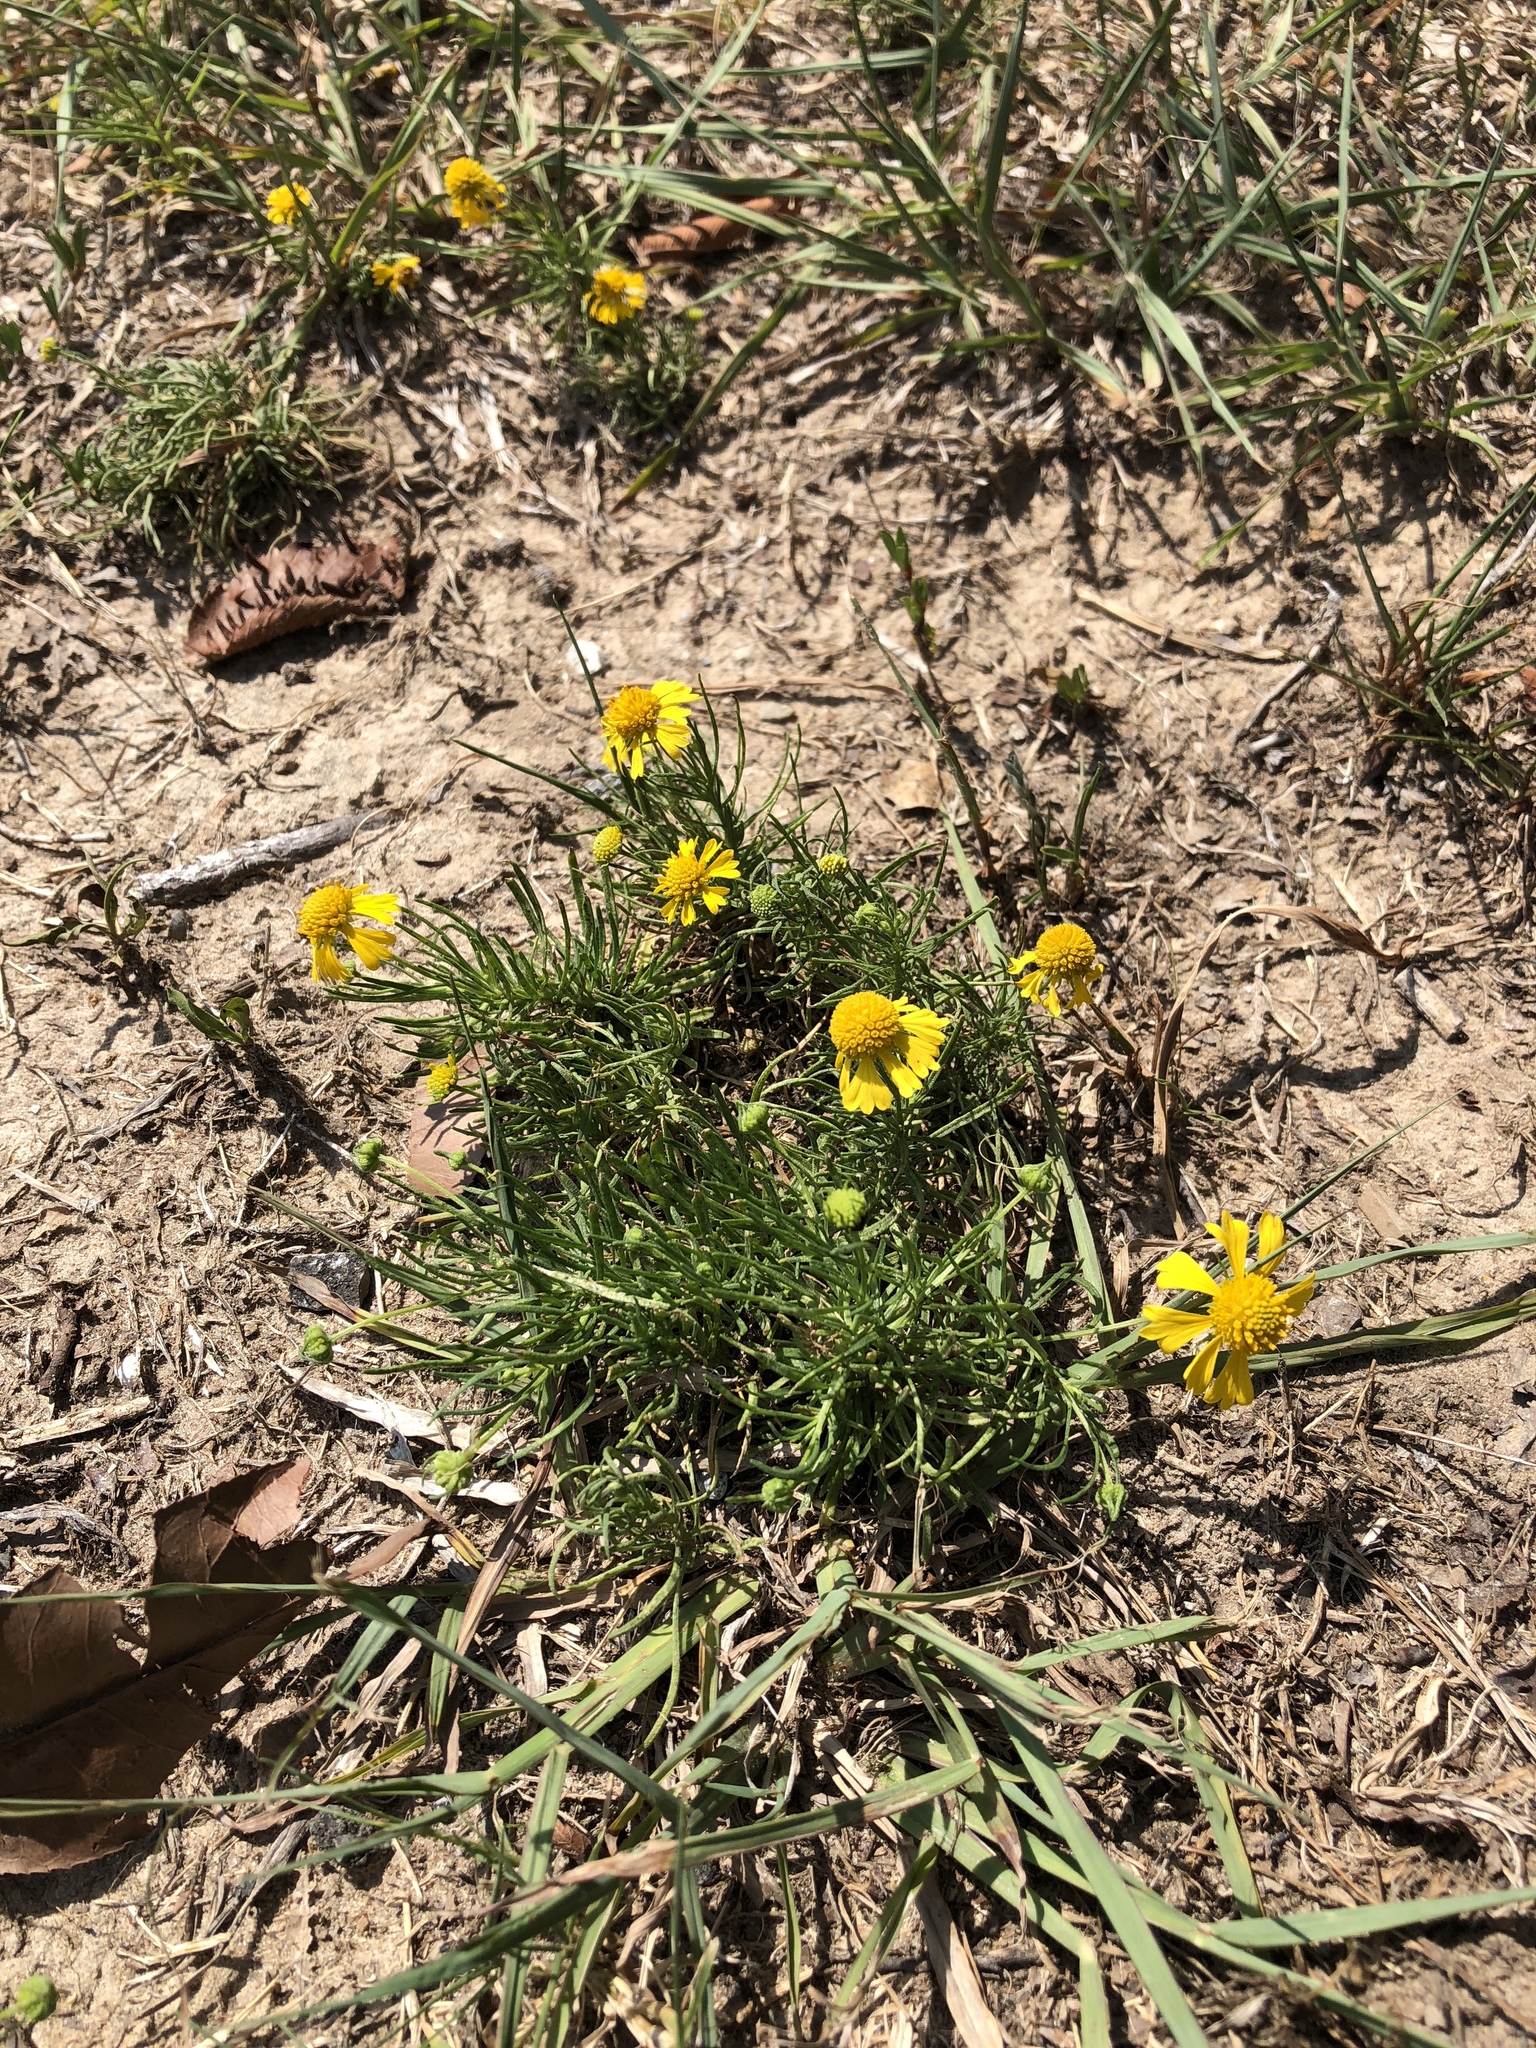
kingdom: Plantae
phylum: Tracheophyta
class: Magnoliopsida
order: Asterales
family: Asteraceae
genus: Helenium
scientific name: Helenium amarum
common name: Bitter sneezeweed
